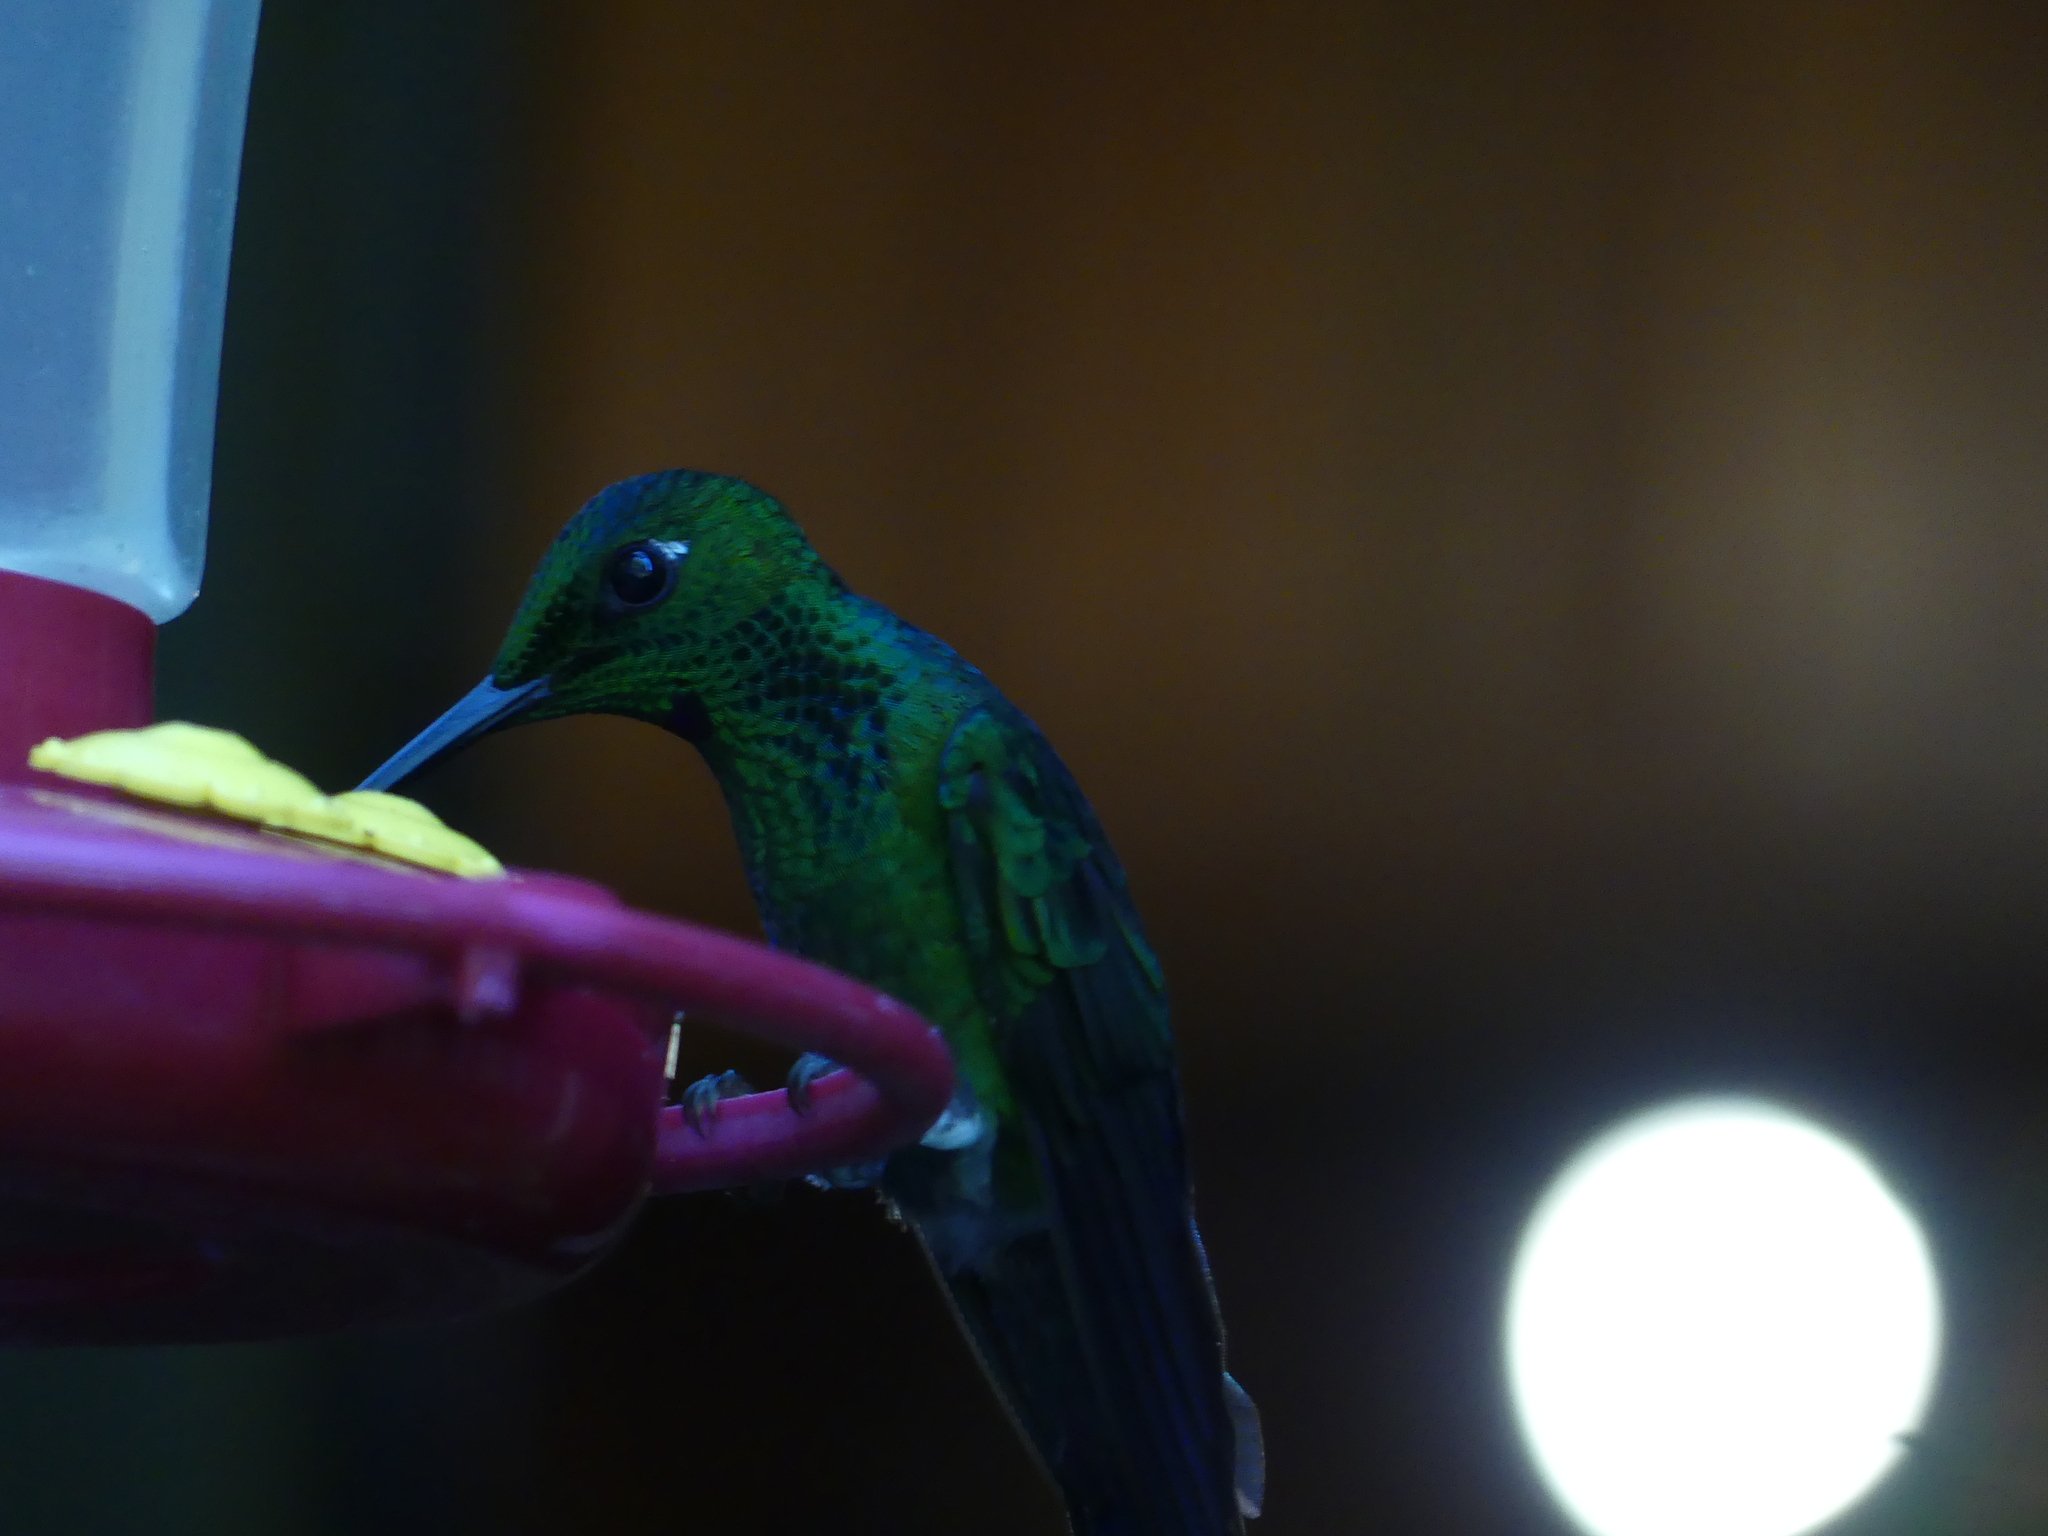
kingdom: Animalia
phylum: Chordata
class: Aves
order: Apodiformes
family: Trochilidae
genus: Heliodoxa
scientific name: Heliodoxa jacula
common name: Green-crowned brilliant
